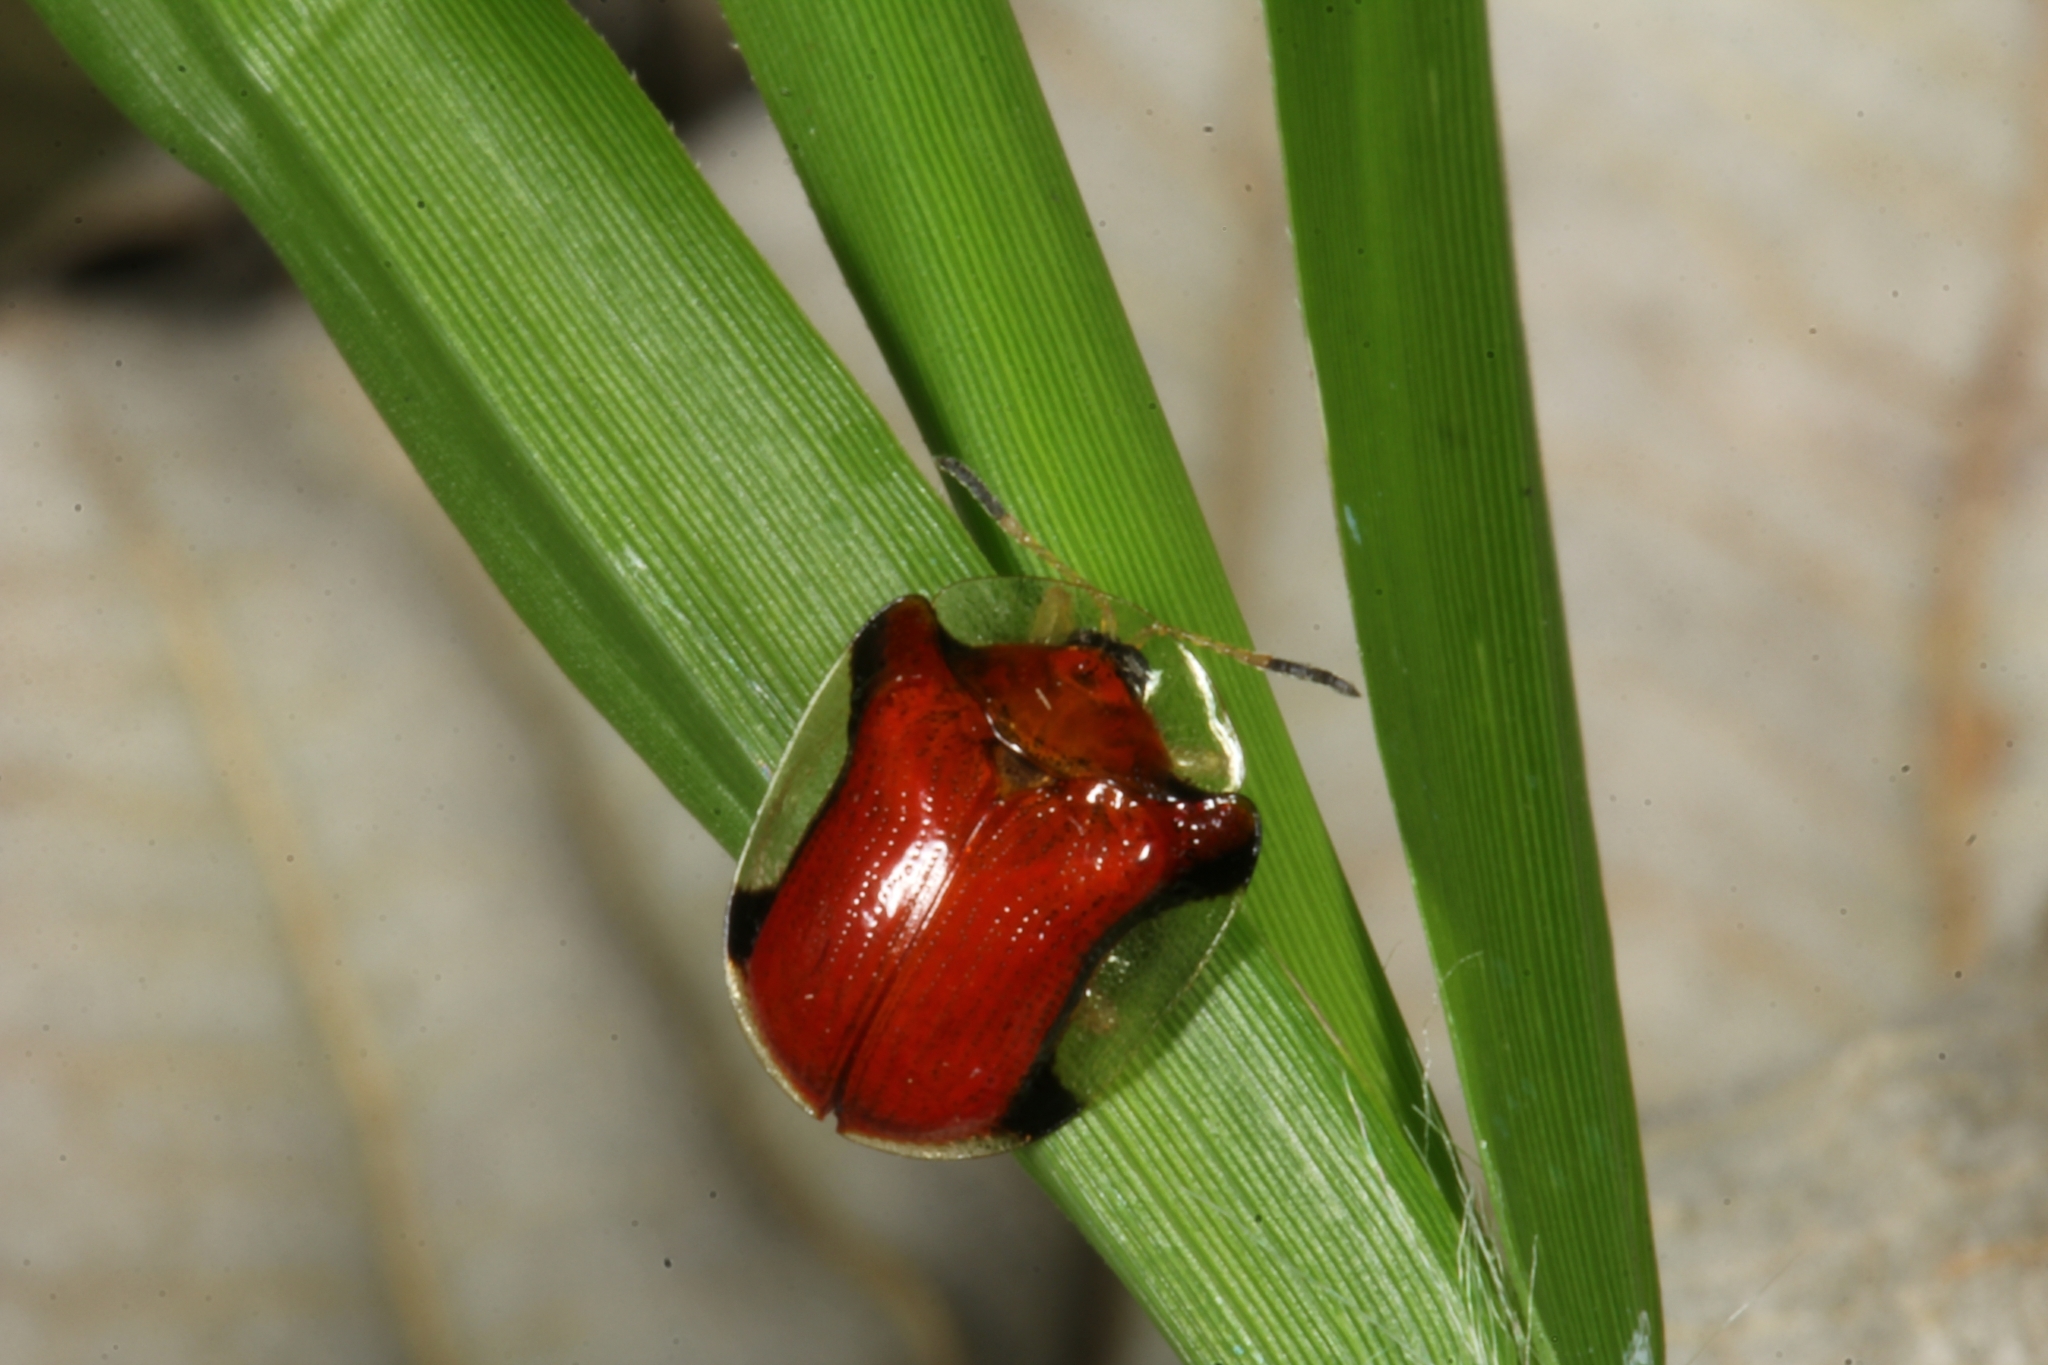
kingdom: Animalia
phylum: Arthropoda
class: Insecta
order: Coleoptera
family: Chrysomelidae
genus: Charidotella
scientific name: Charidotella emarginata
